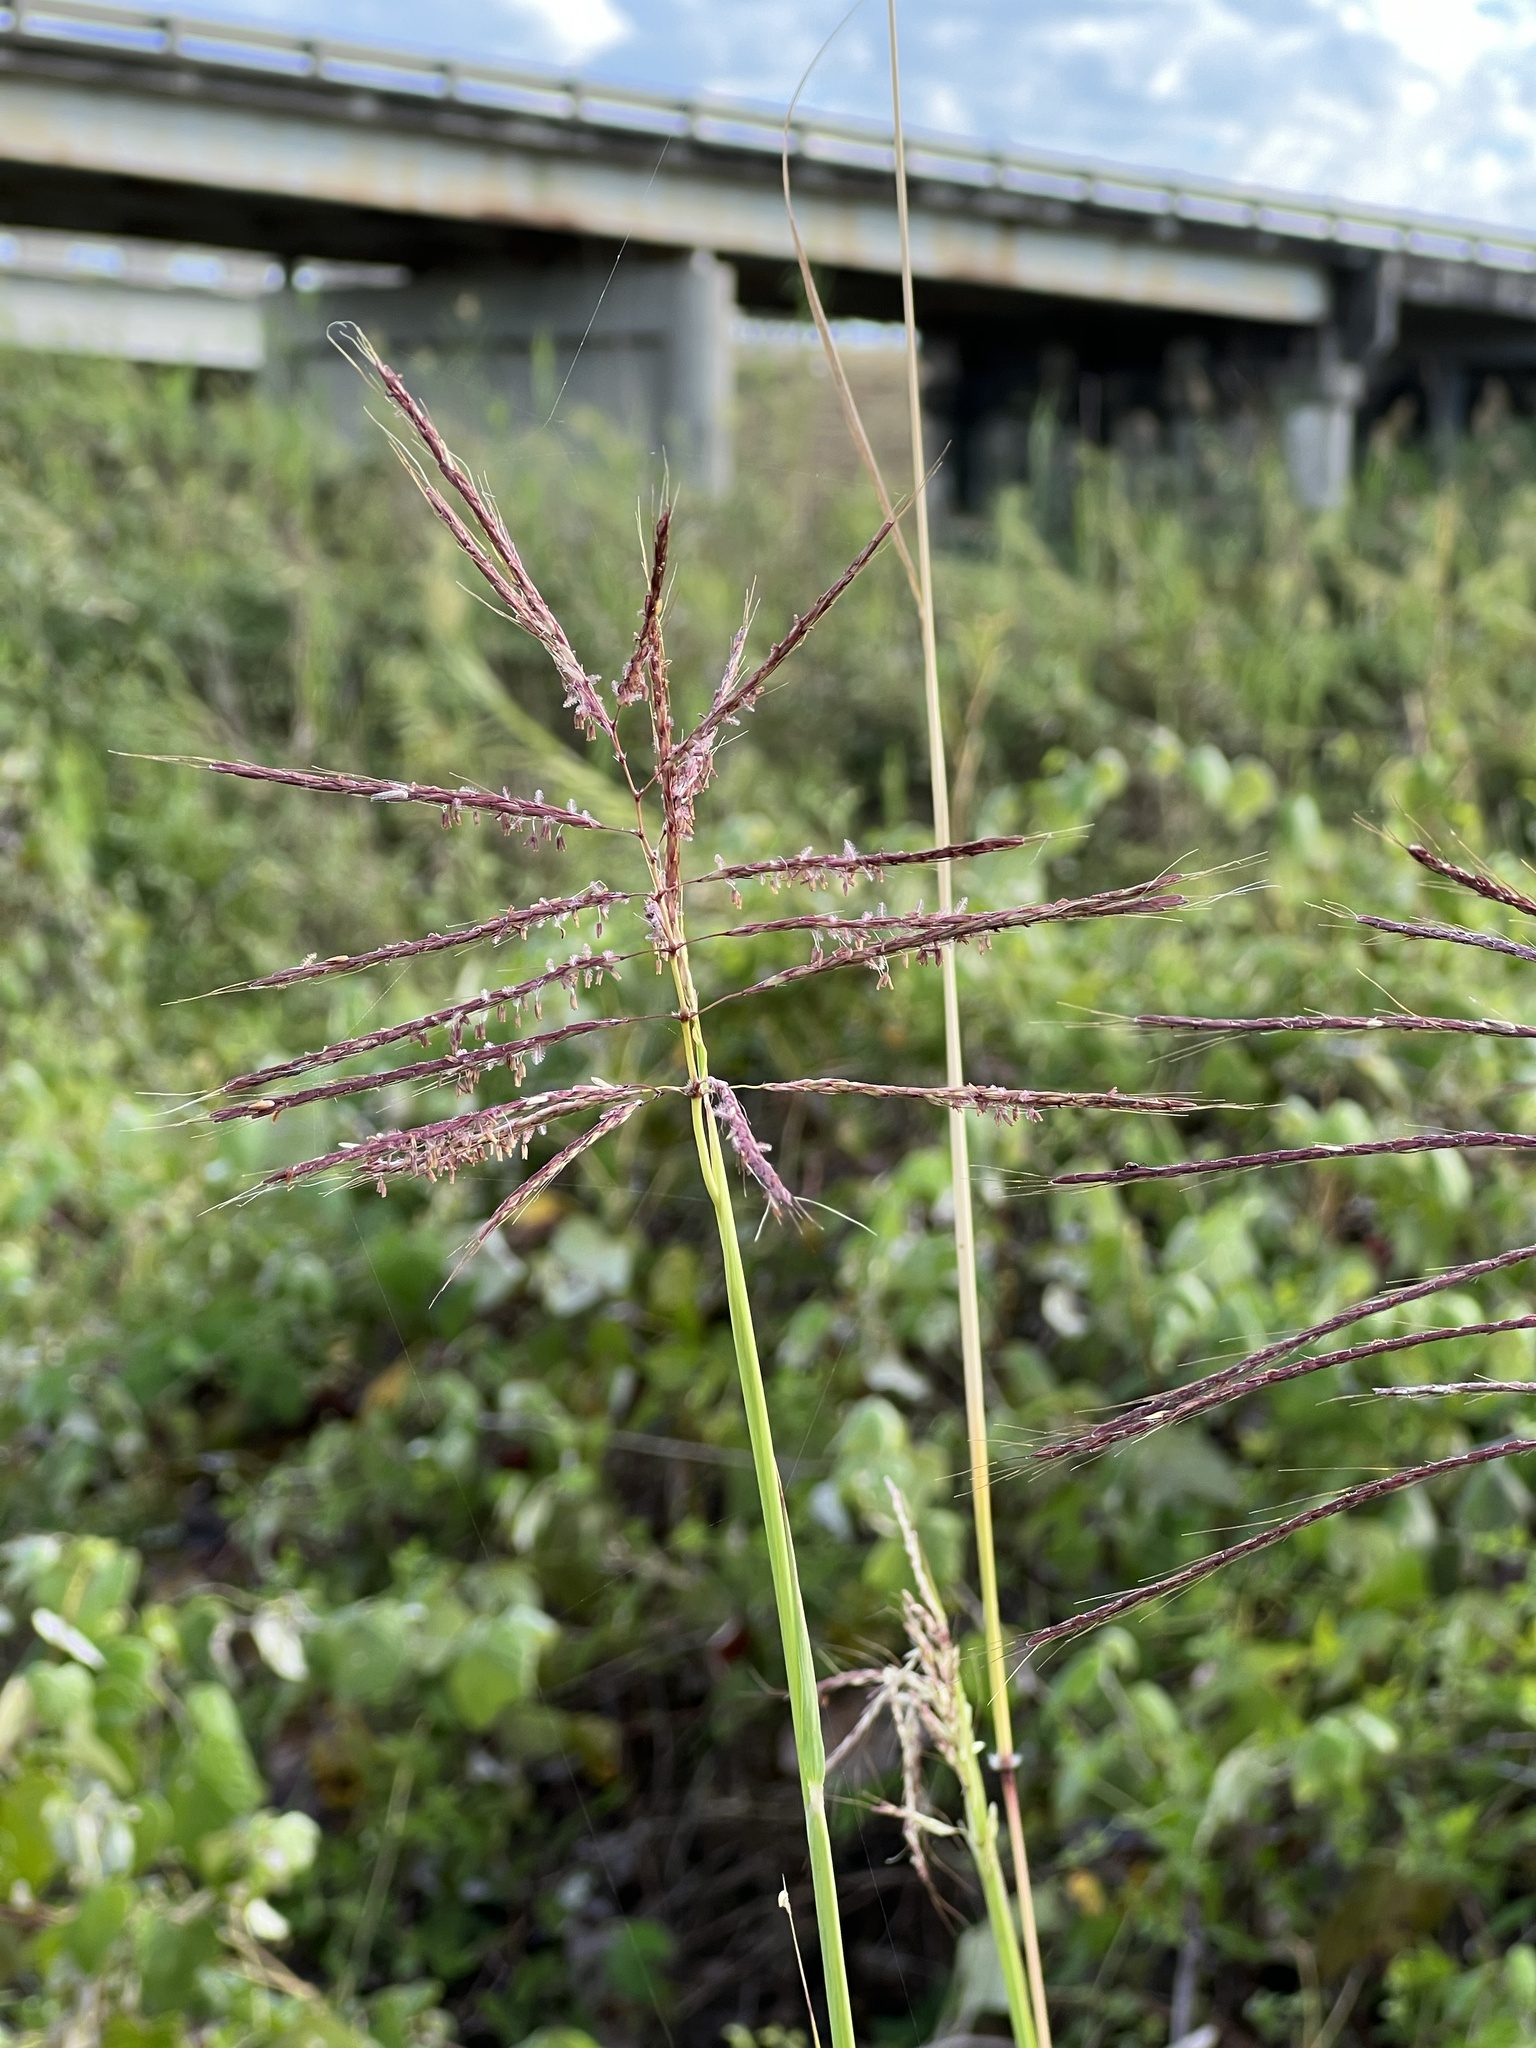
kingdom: Plantae
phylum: Tracheophyta
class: Liliopsida
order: Poales
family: Poaceae
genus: Bothriochloa
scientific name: Bothriochloa bladhii
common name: Caucasian bluestem
